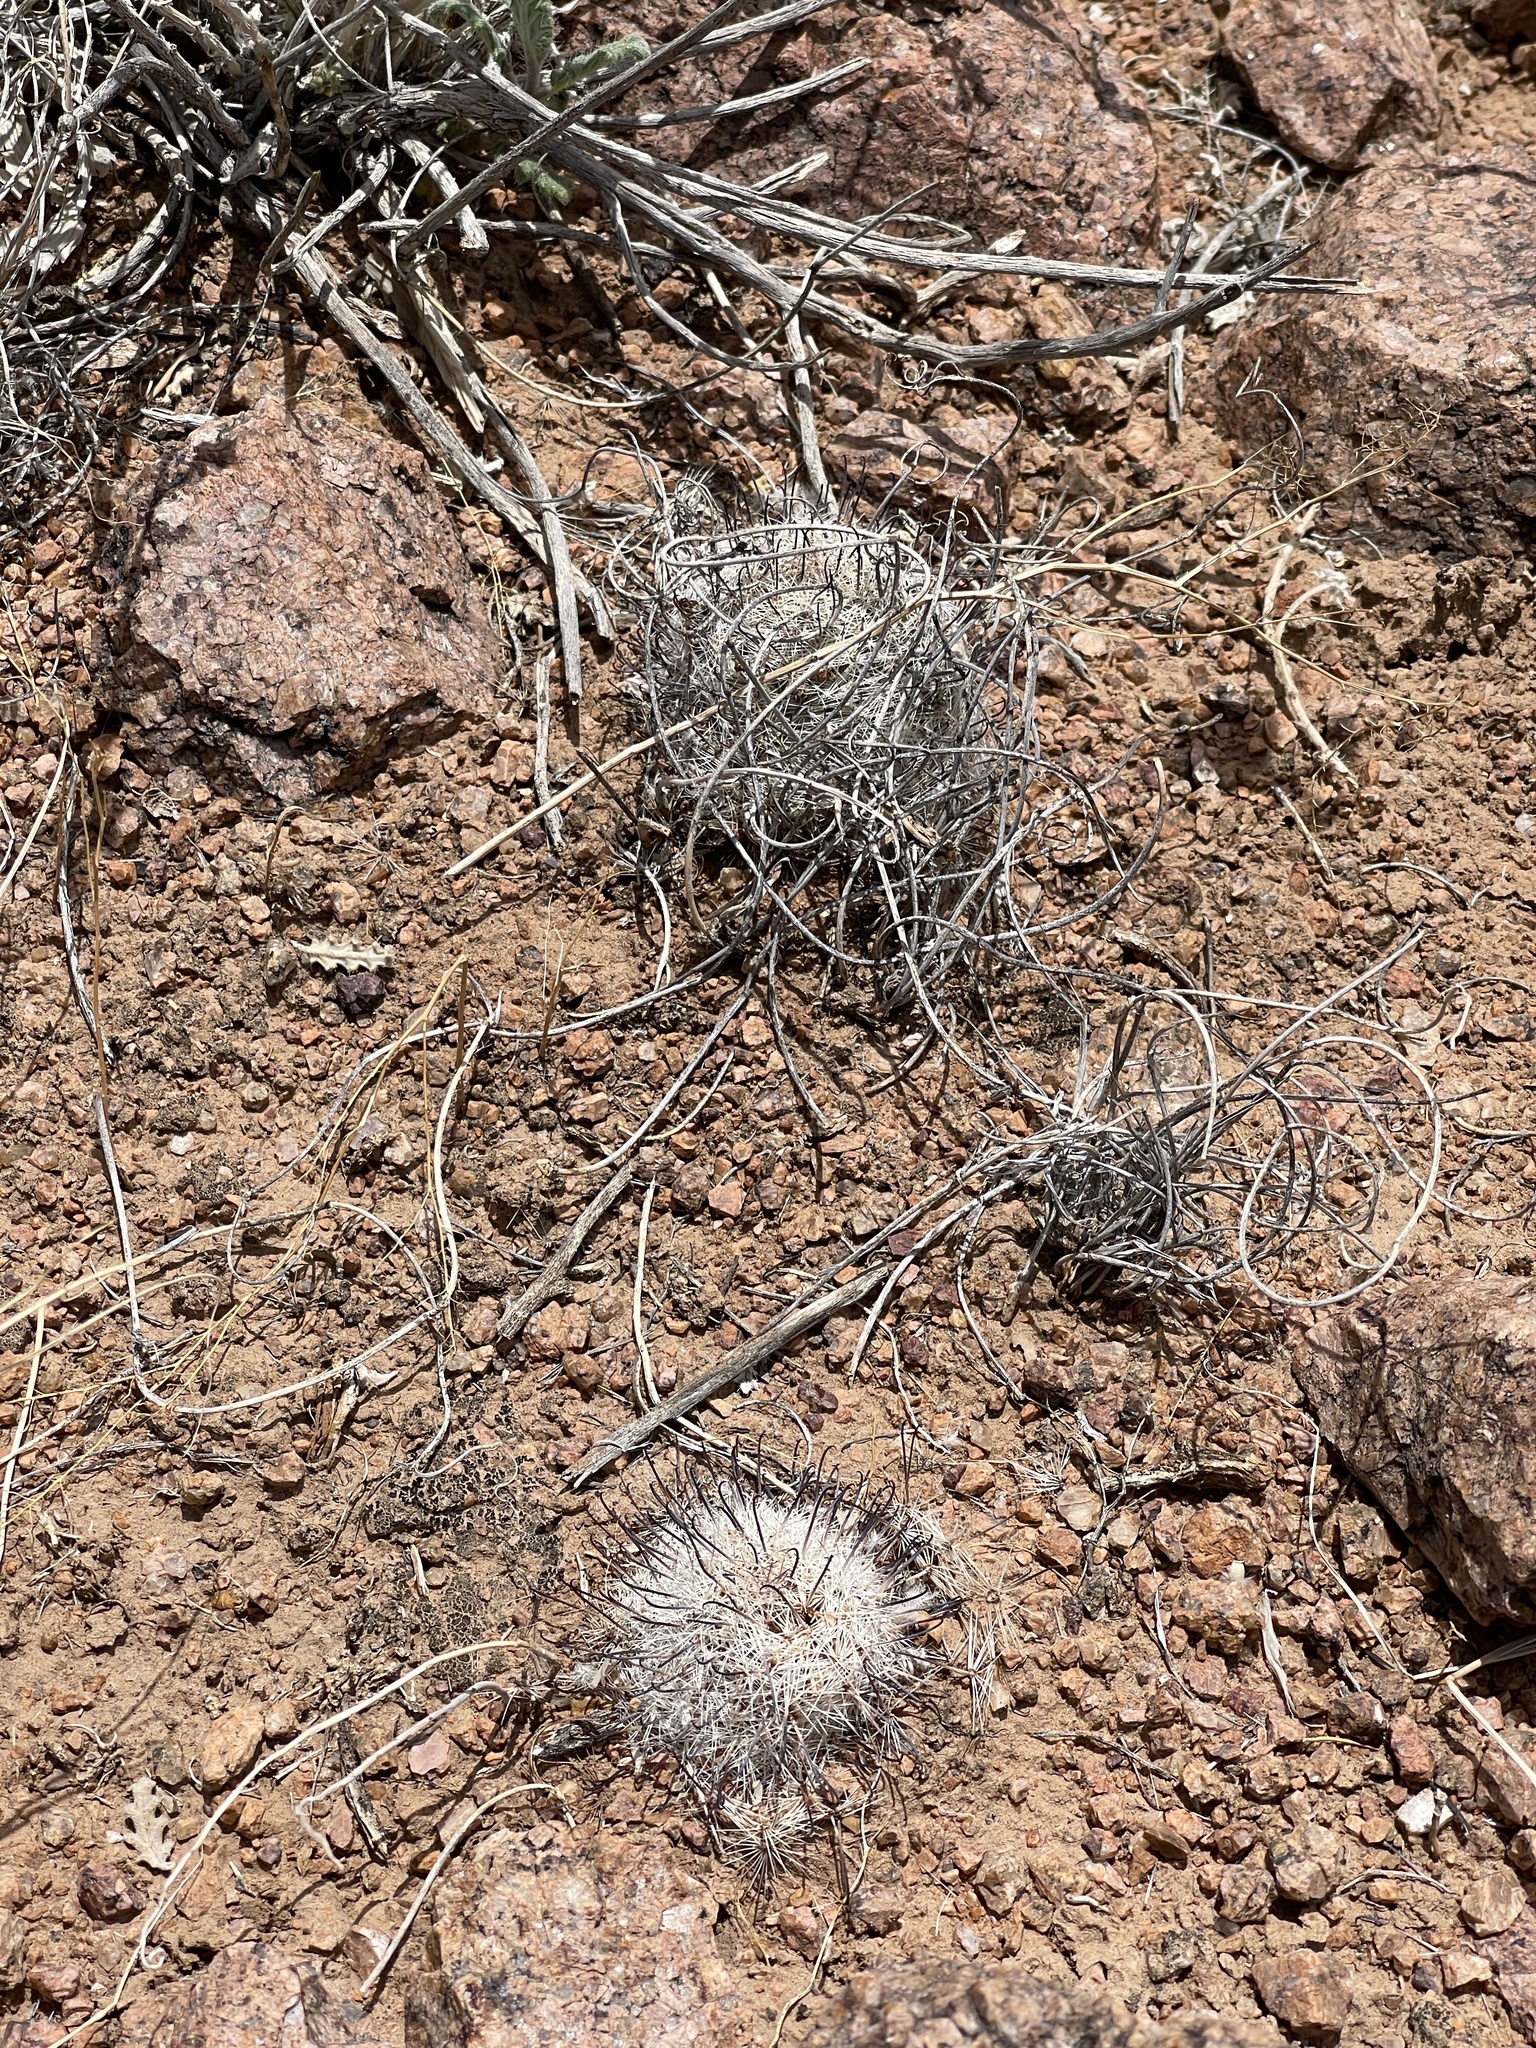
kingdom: Plantae
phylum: Tracheophyta
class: Magnoliopsida
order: Caryophyllales
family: Cactaceae
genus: Cochemiea
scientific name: Cochemiea grahamii
